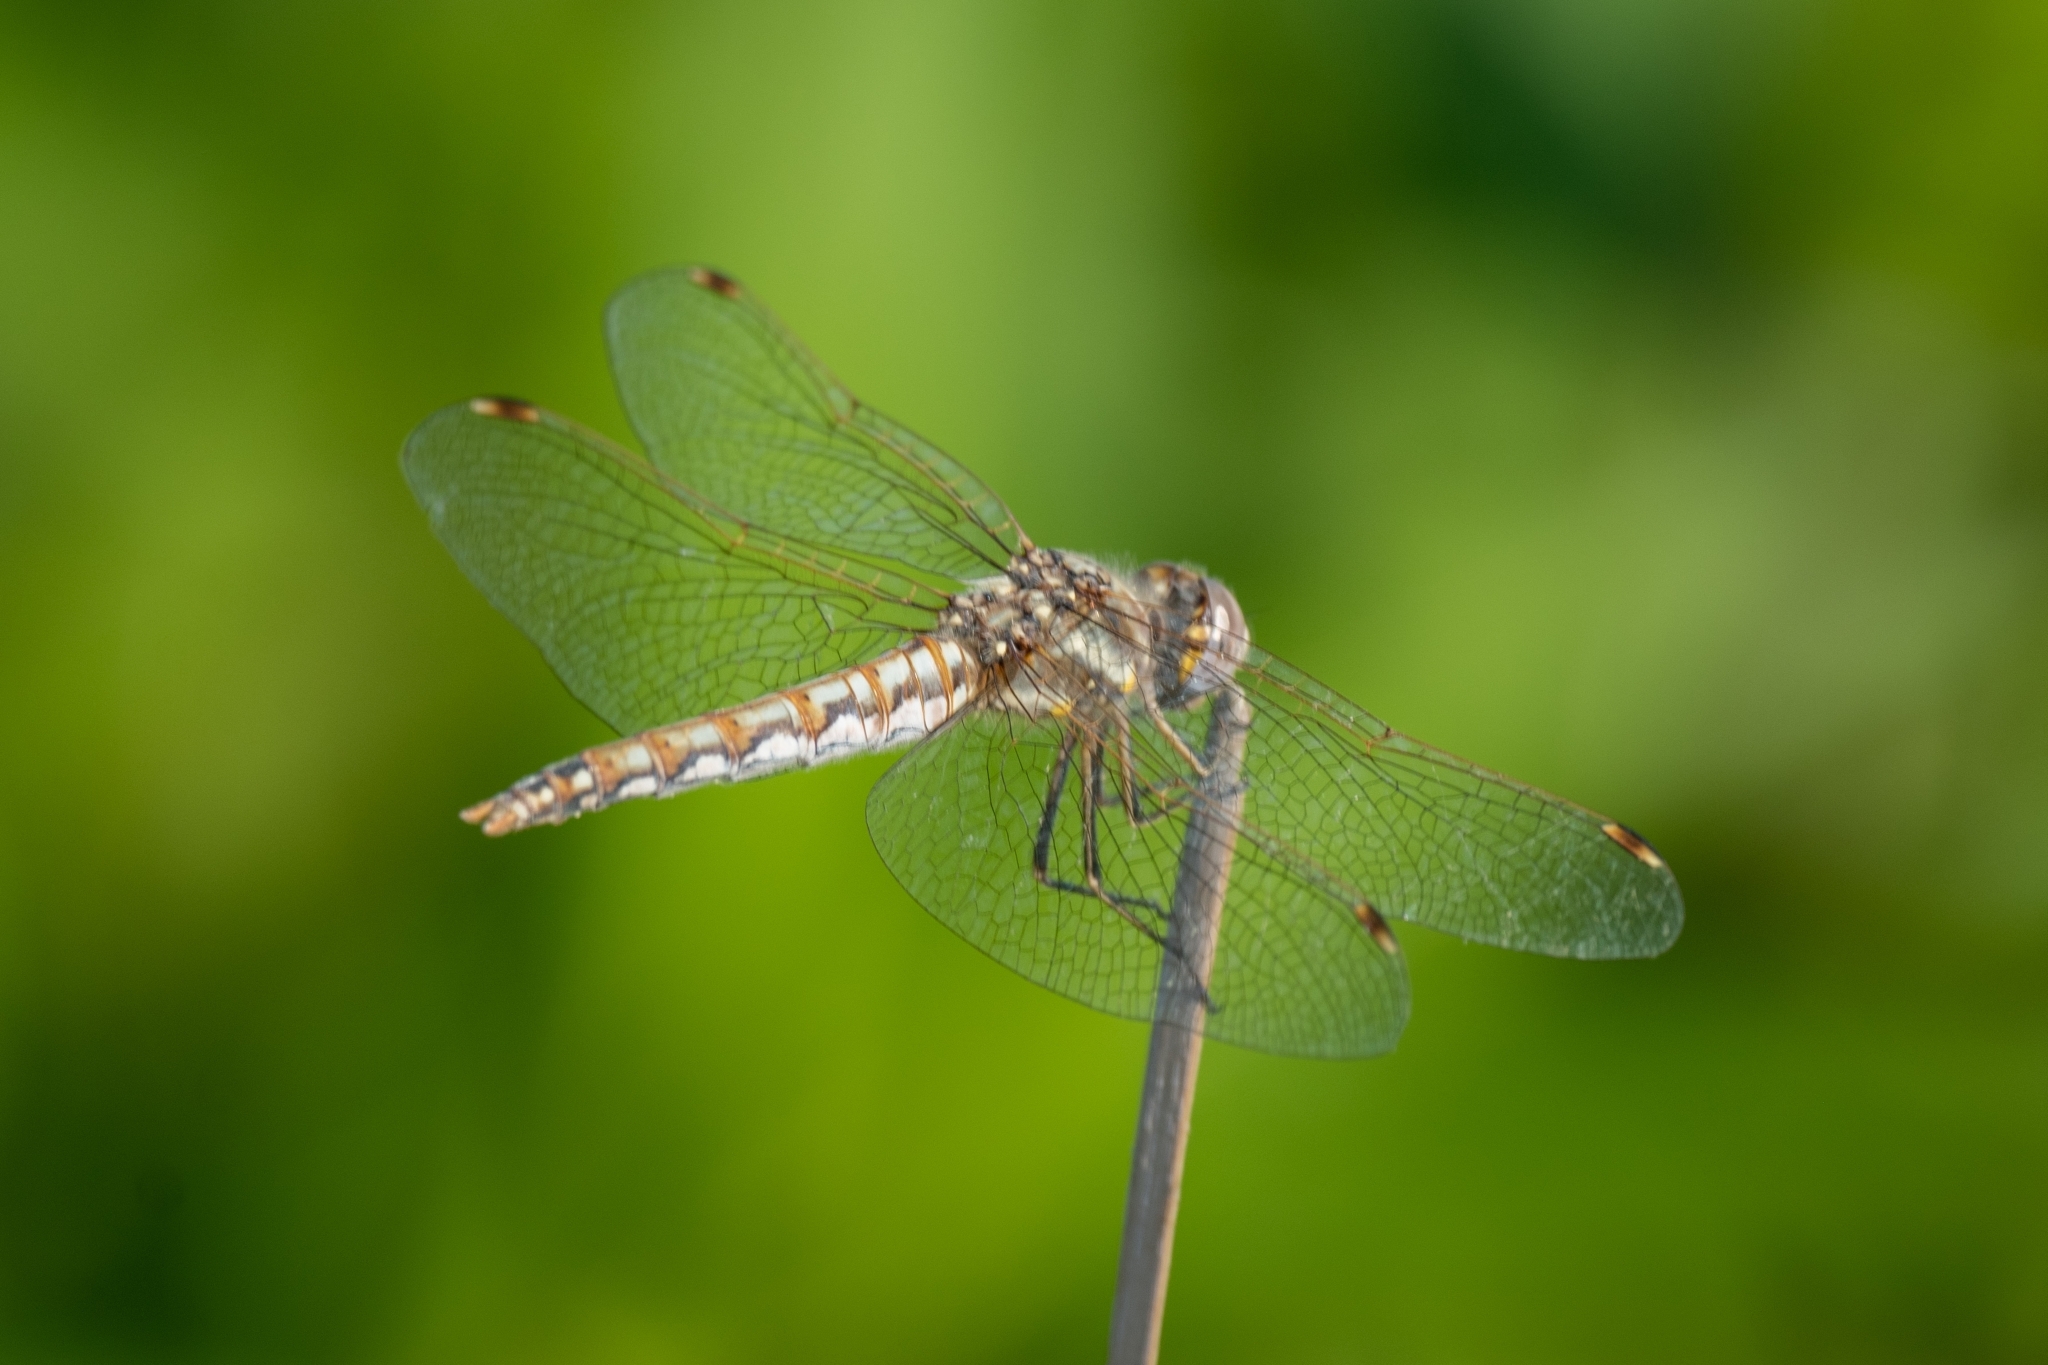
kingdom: Animalia
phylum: Arthropoda
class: Insecta
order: Odonata
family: Libellulidae
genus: Sympetrum
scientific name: Sympetrum corruptum
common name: Variegated meadowhawk
